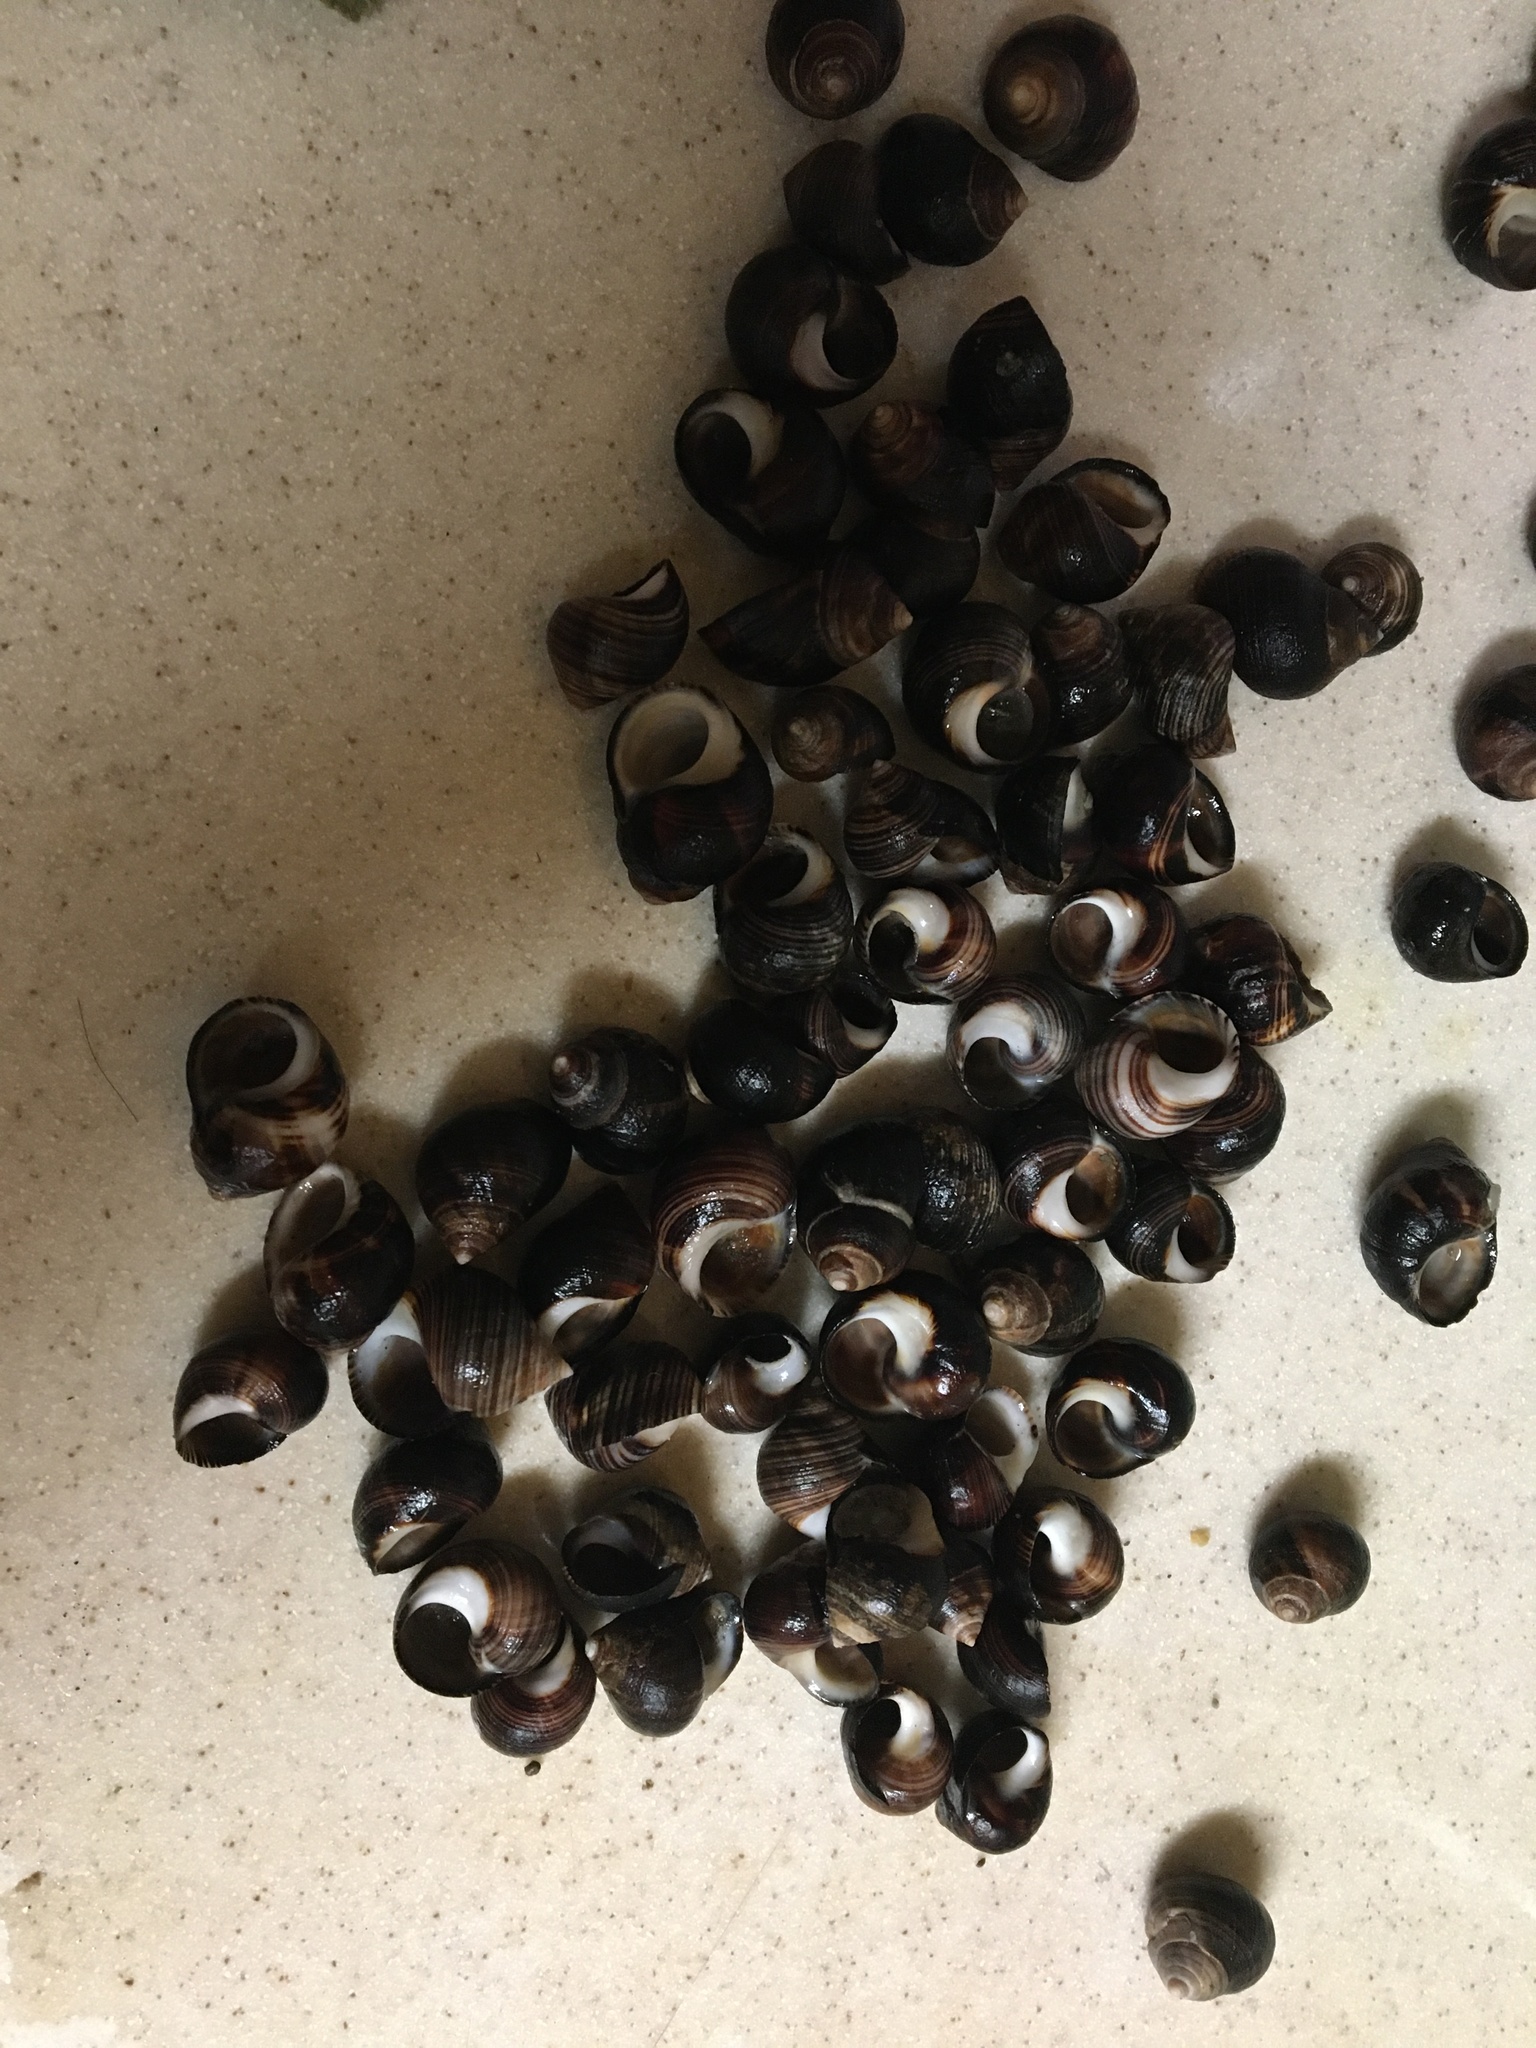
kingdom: Animalia
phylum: Mollusca
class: Gastropoda
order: Littorinimorpha
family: Littorinidae
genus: Littorina
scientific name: Littorina littorea
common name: Common periwinkle
